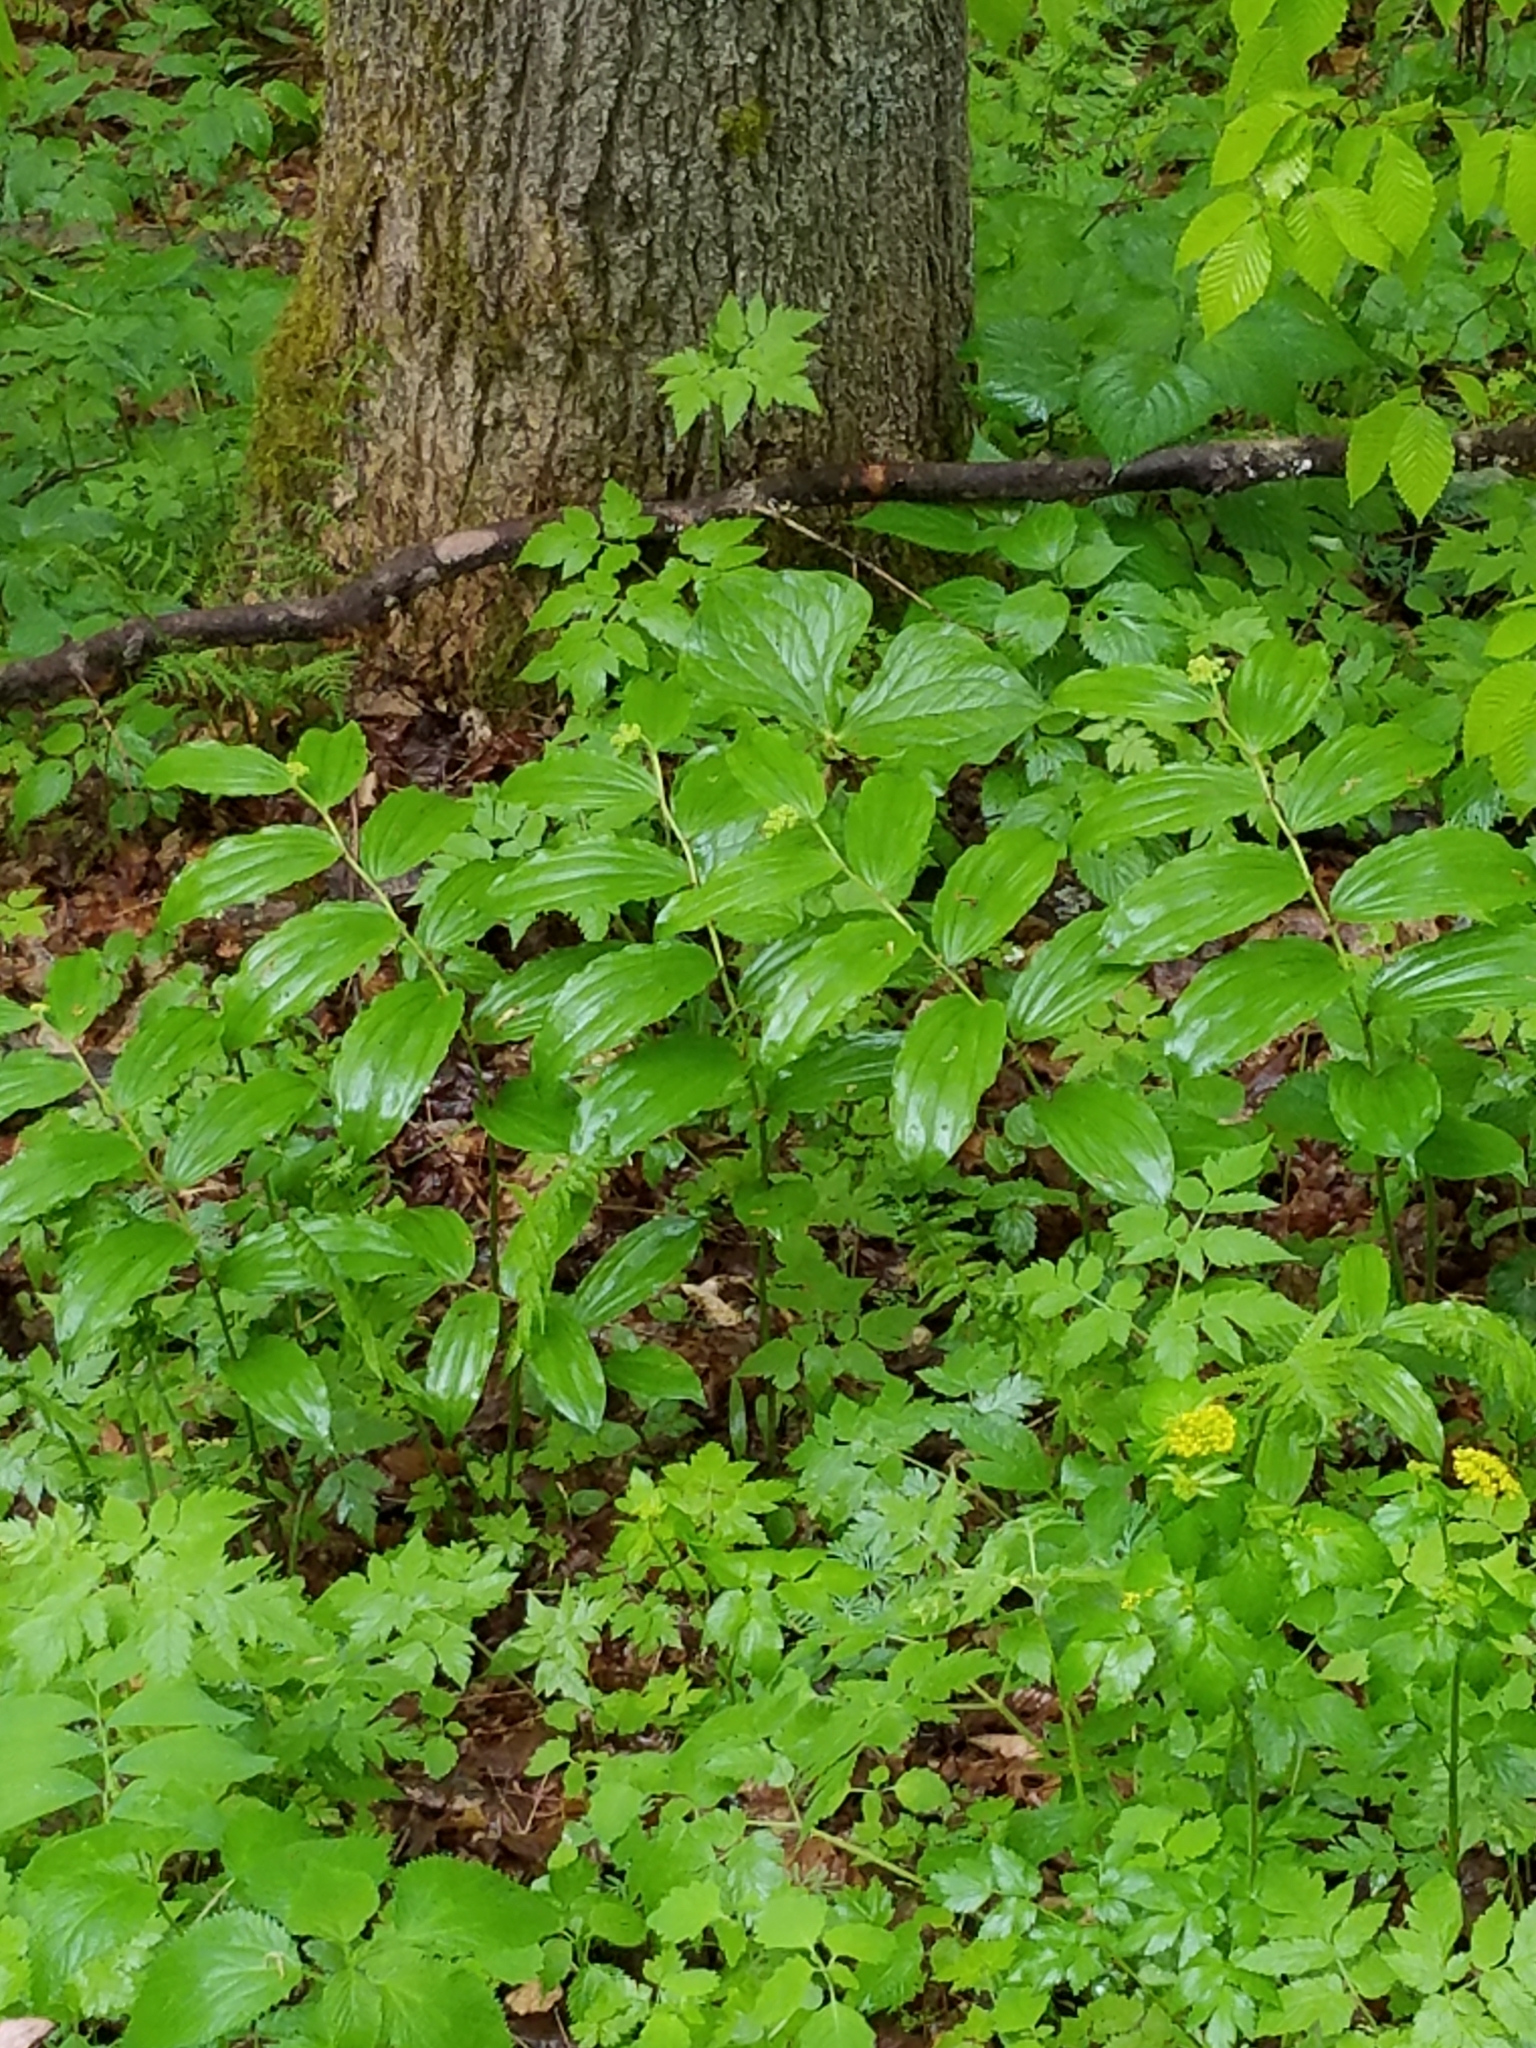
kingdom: Plantae
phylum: Tracheophyta
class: Liliopsida
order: Asparagales
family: Asparagaceae
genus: Maianthemum
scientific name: Maianthemum racemosum
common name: False spikenard
